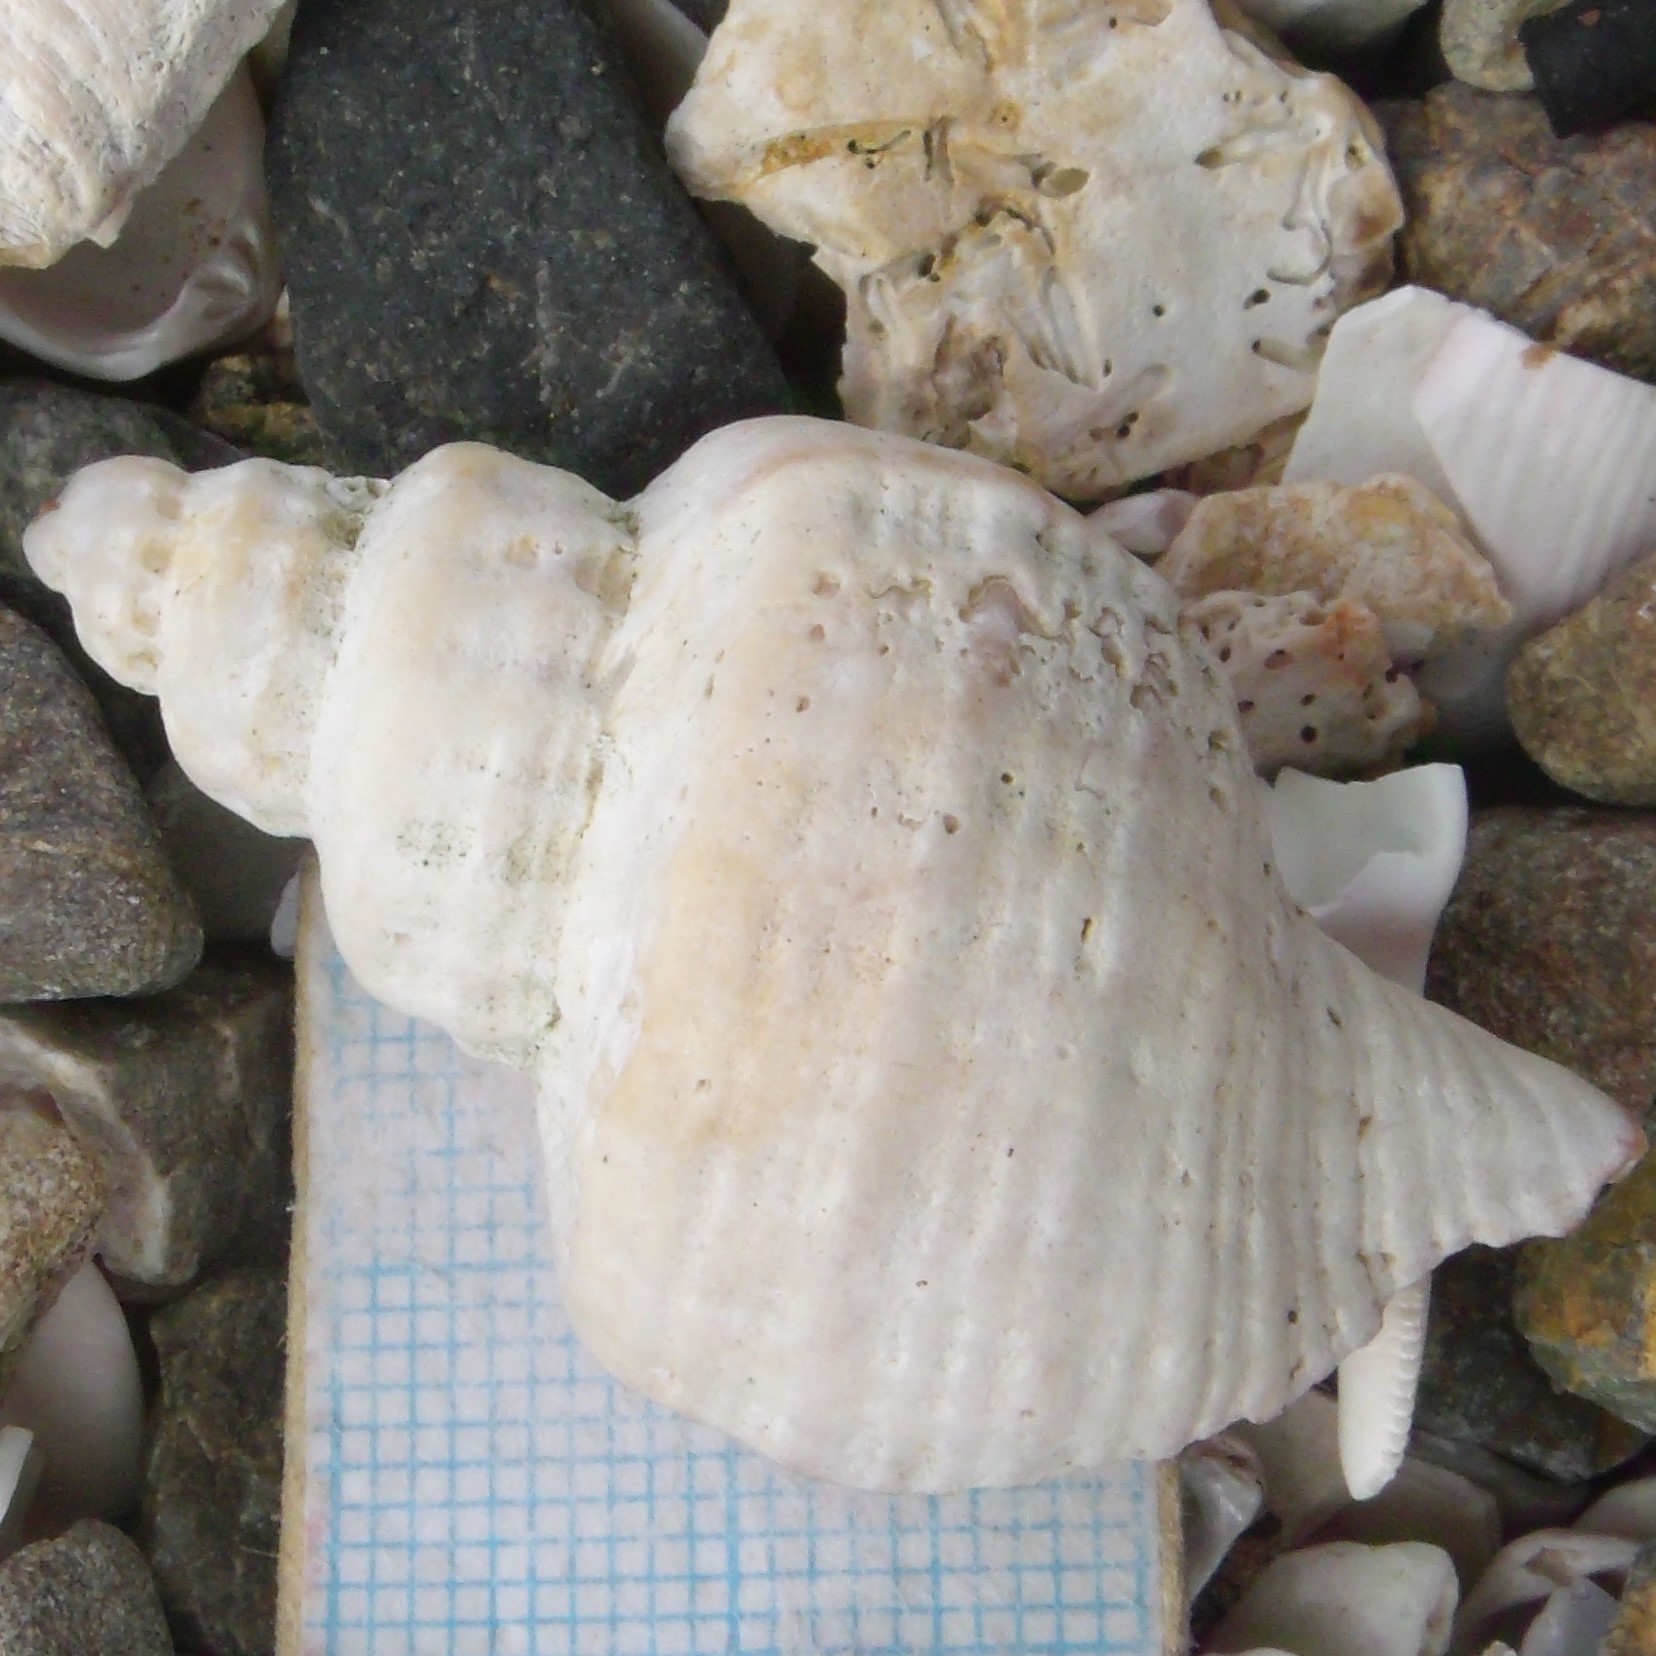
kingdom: Animalia
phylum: Mollusca
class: Gastropoda
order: Neogastropoda
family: Muricidae
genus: Zeatrophon
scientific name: Zeatrophon ambiguus
